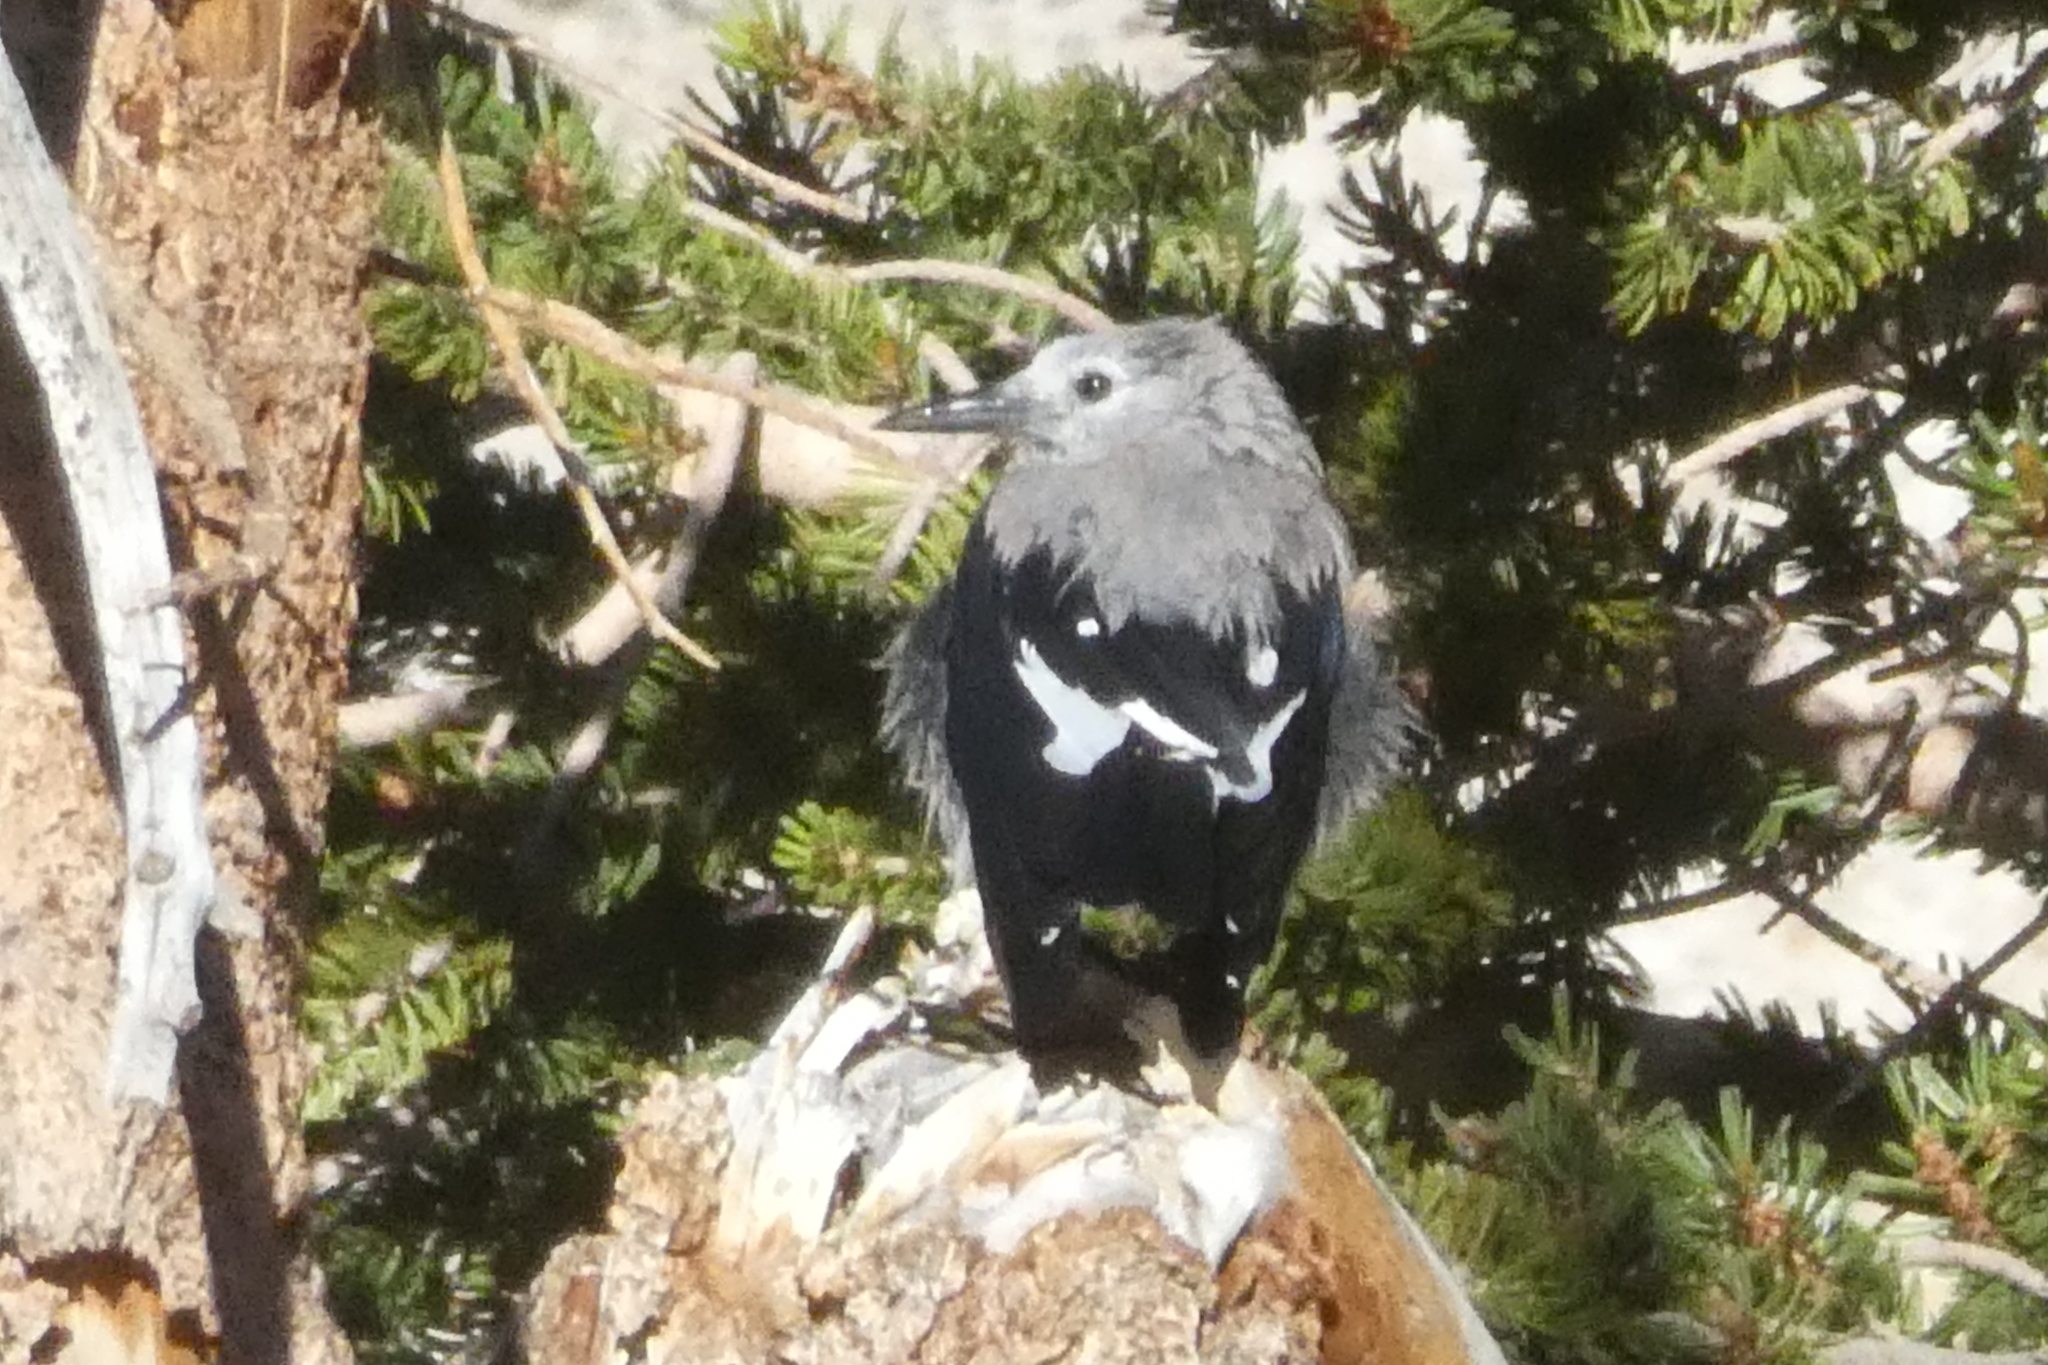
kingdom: Animalia
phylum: Chordata
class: Aves
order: Passeriformes
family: Corvidae
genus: Nucifraga
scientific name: Nucifraga columbiana
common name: Clark's nutcracker
